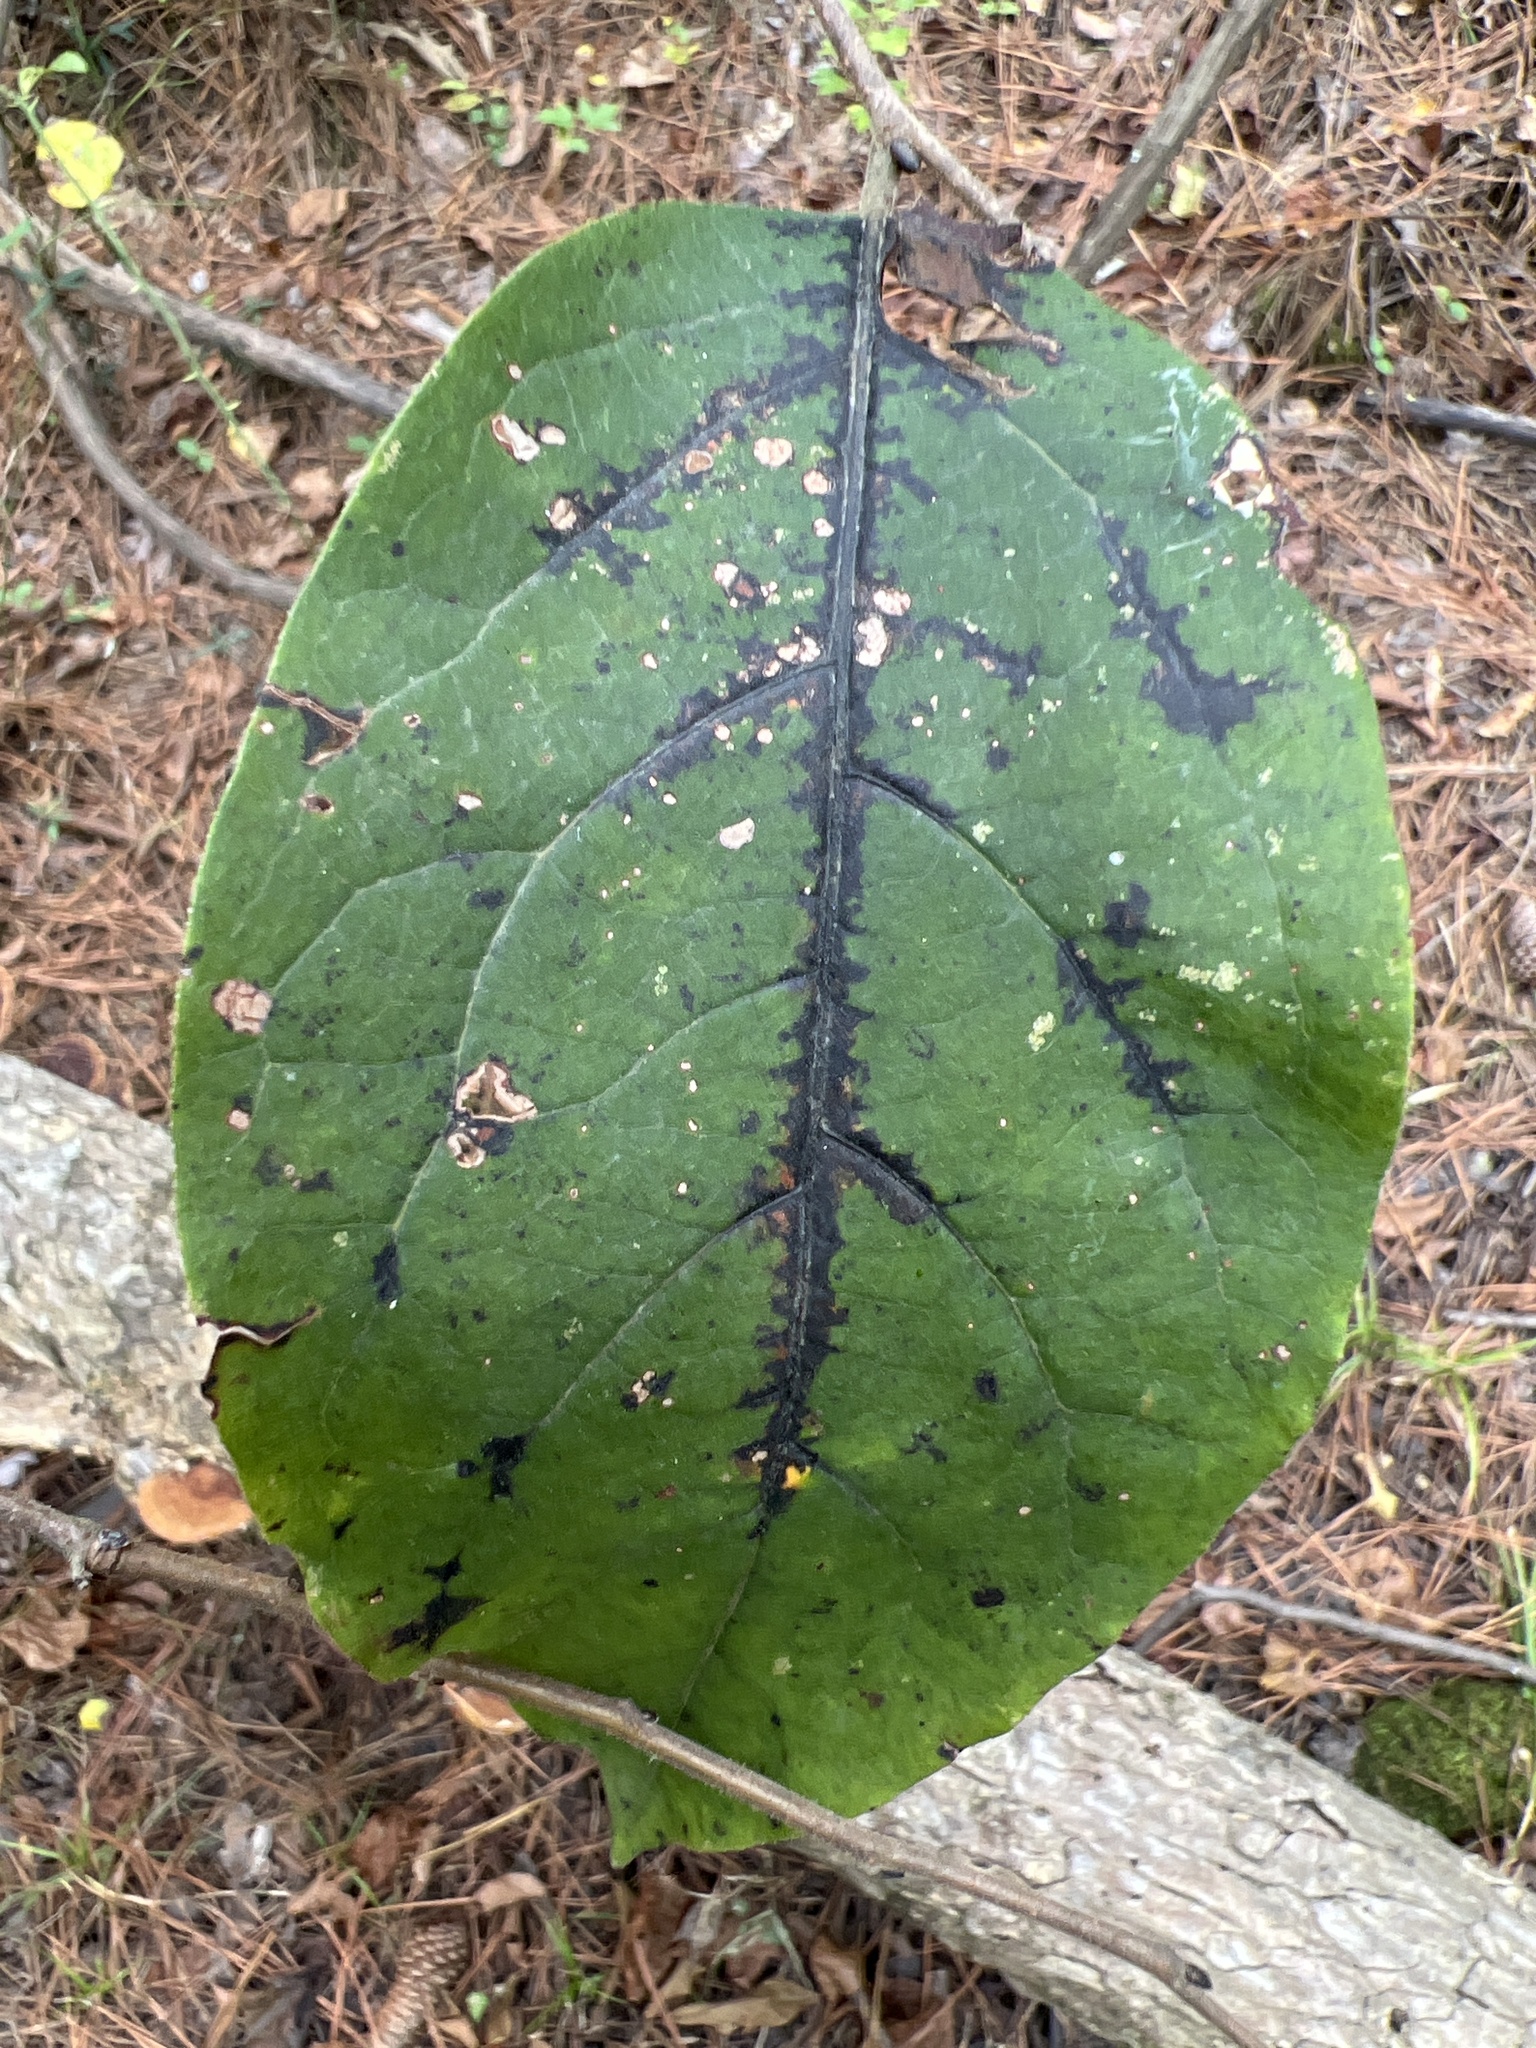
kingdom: Plantae
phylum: Tracheophyta
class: Magnoliopsida
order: Ericales
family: Ebenaceae
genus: Diospyros
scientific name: Diospyros virginiana
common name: Persimmon
